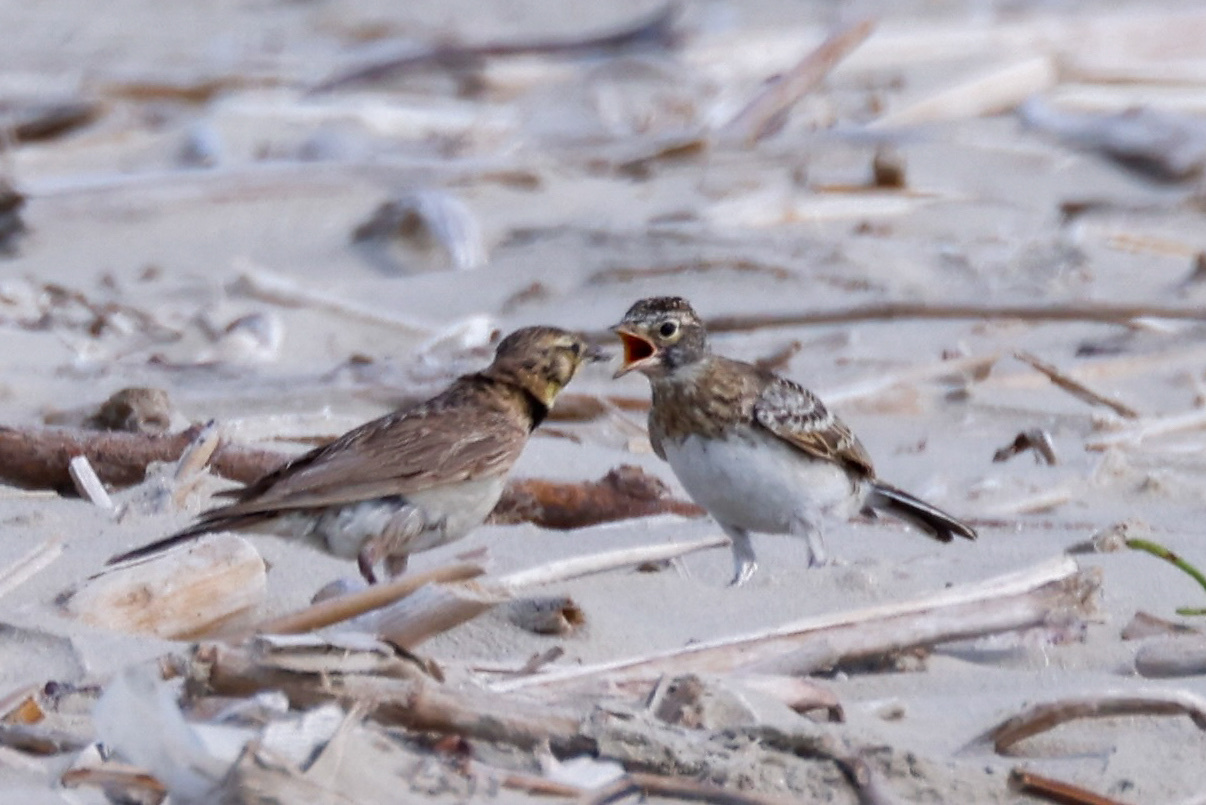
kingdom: Animalia
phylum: Chordata
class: Aves
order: Passeriformes
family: Alaudidae
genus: Eremophila
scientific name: Eremophila alpestris
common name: Horned lark
